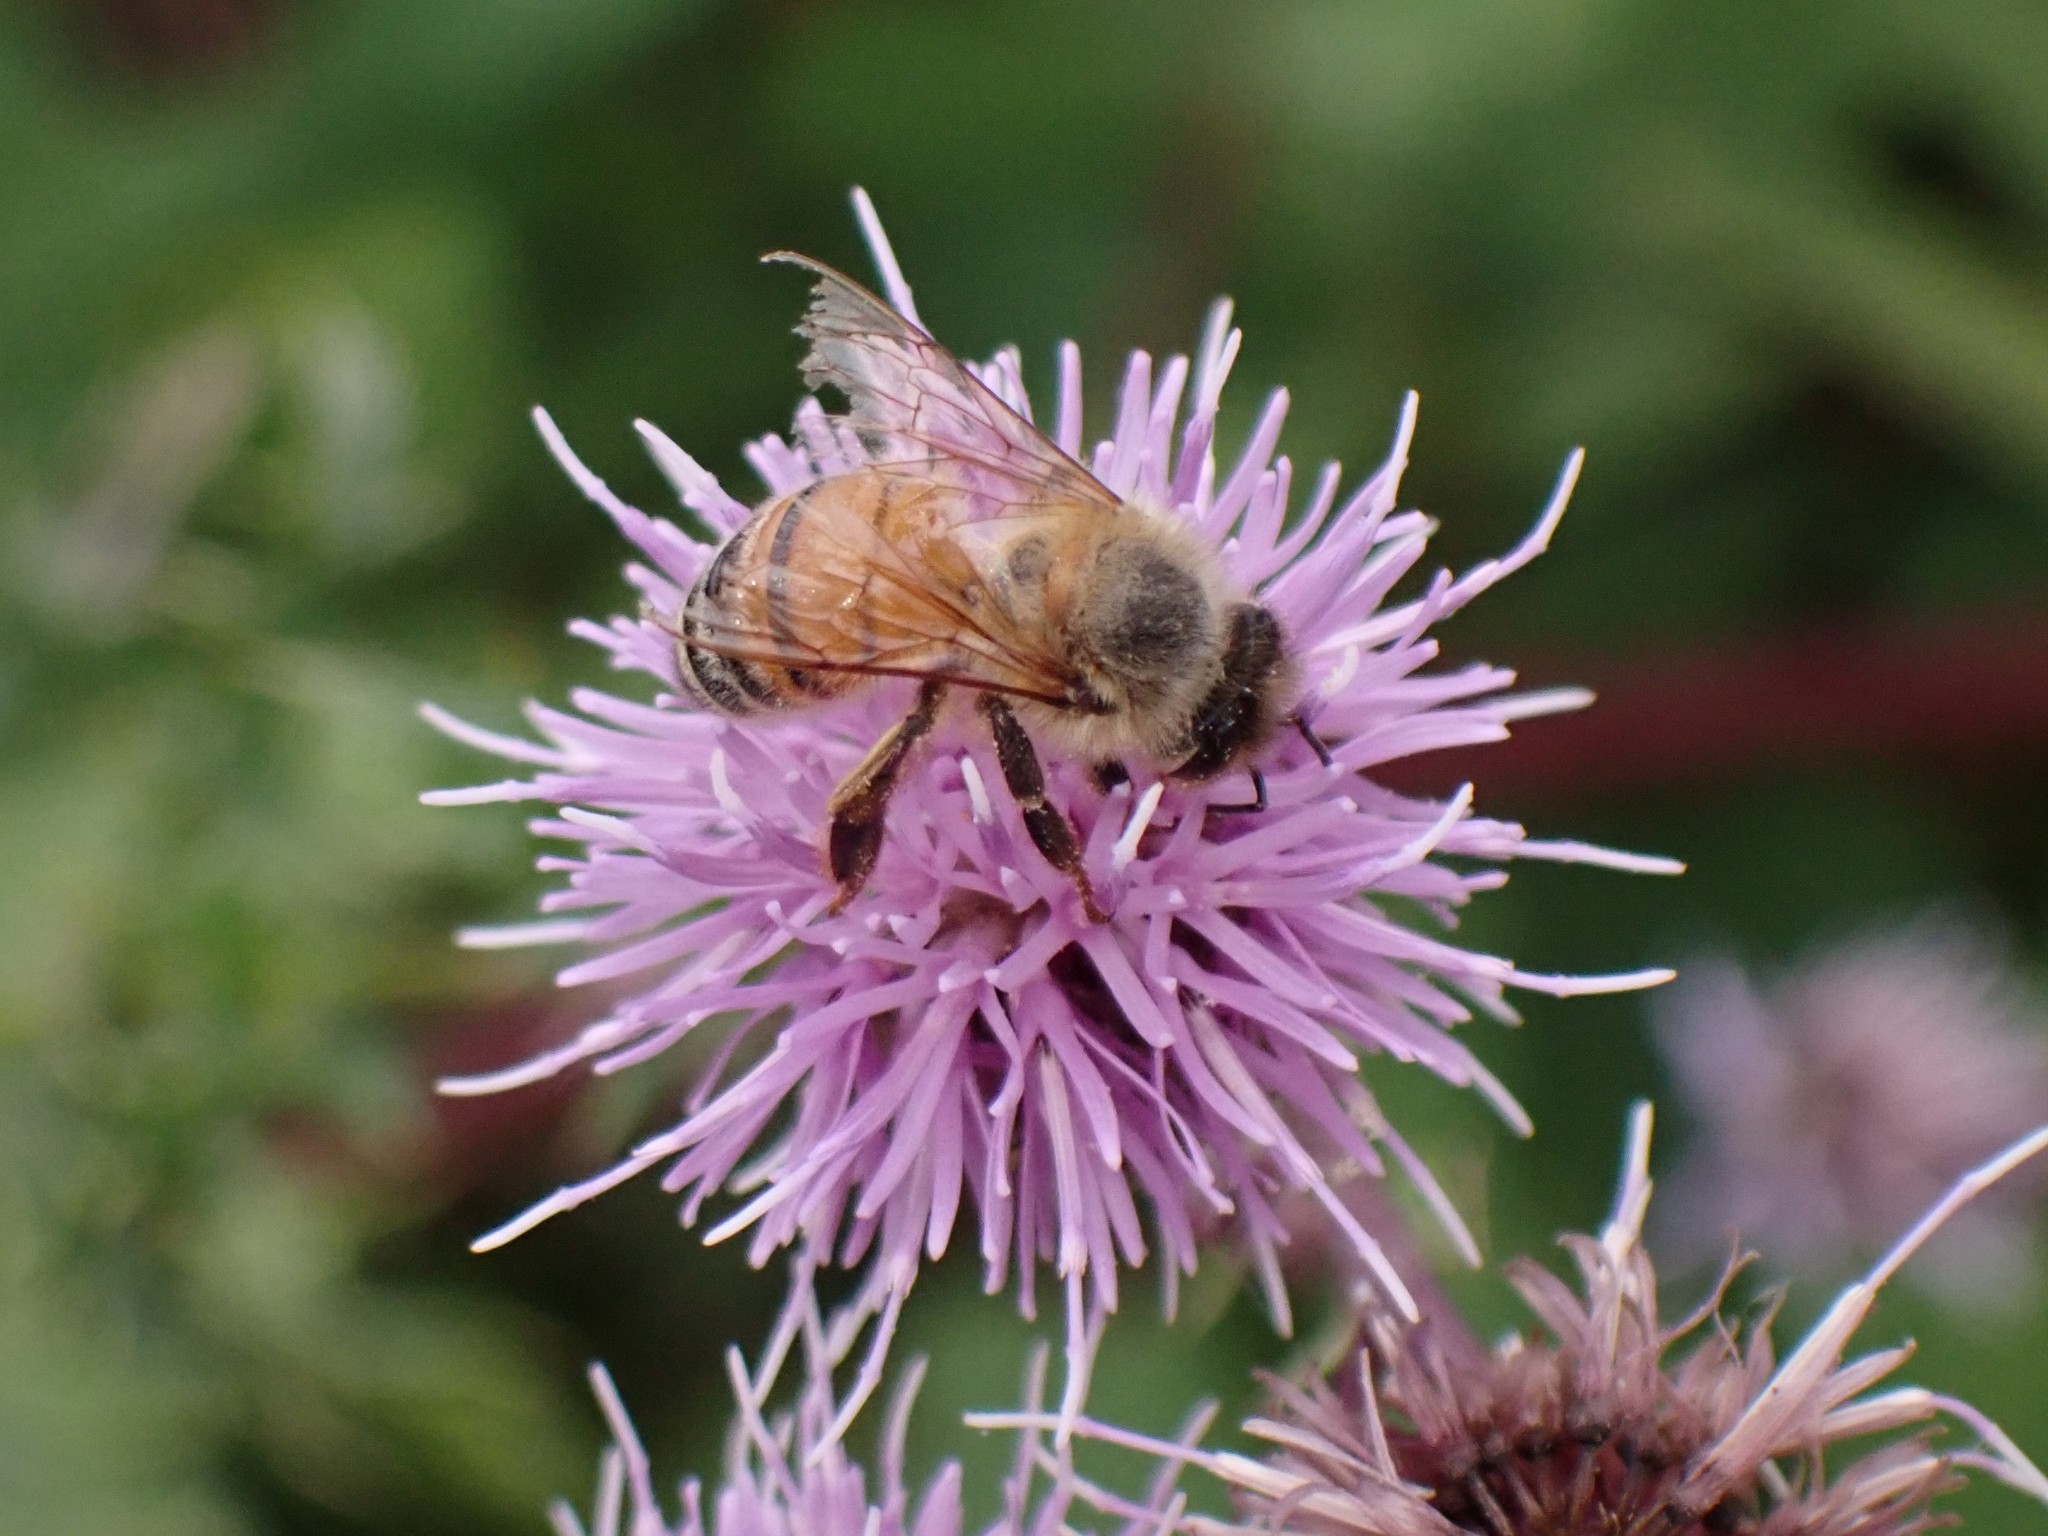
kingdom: Animalia
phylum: Arthropoda
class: Insecta
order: Hymenoptera
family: Apidae
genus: Apis
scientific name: Apis mellifera
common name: Honey bee
